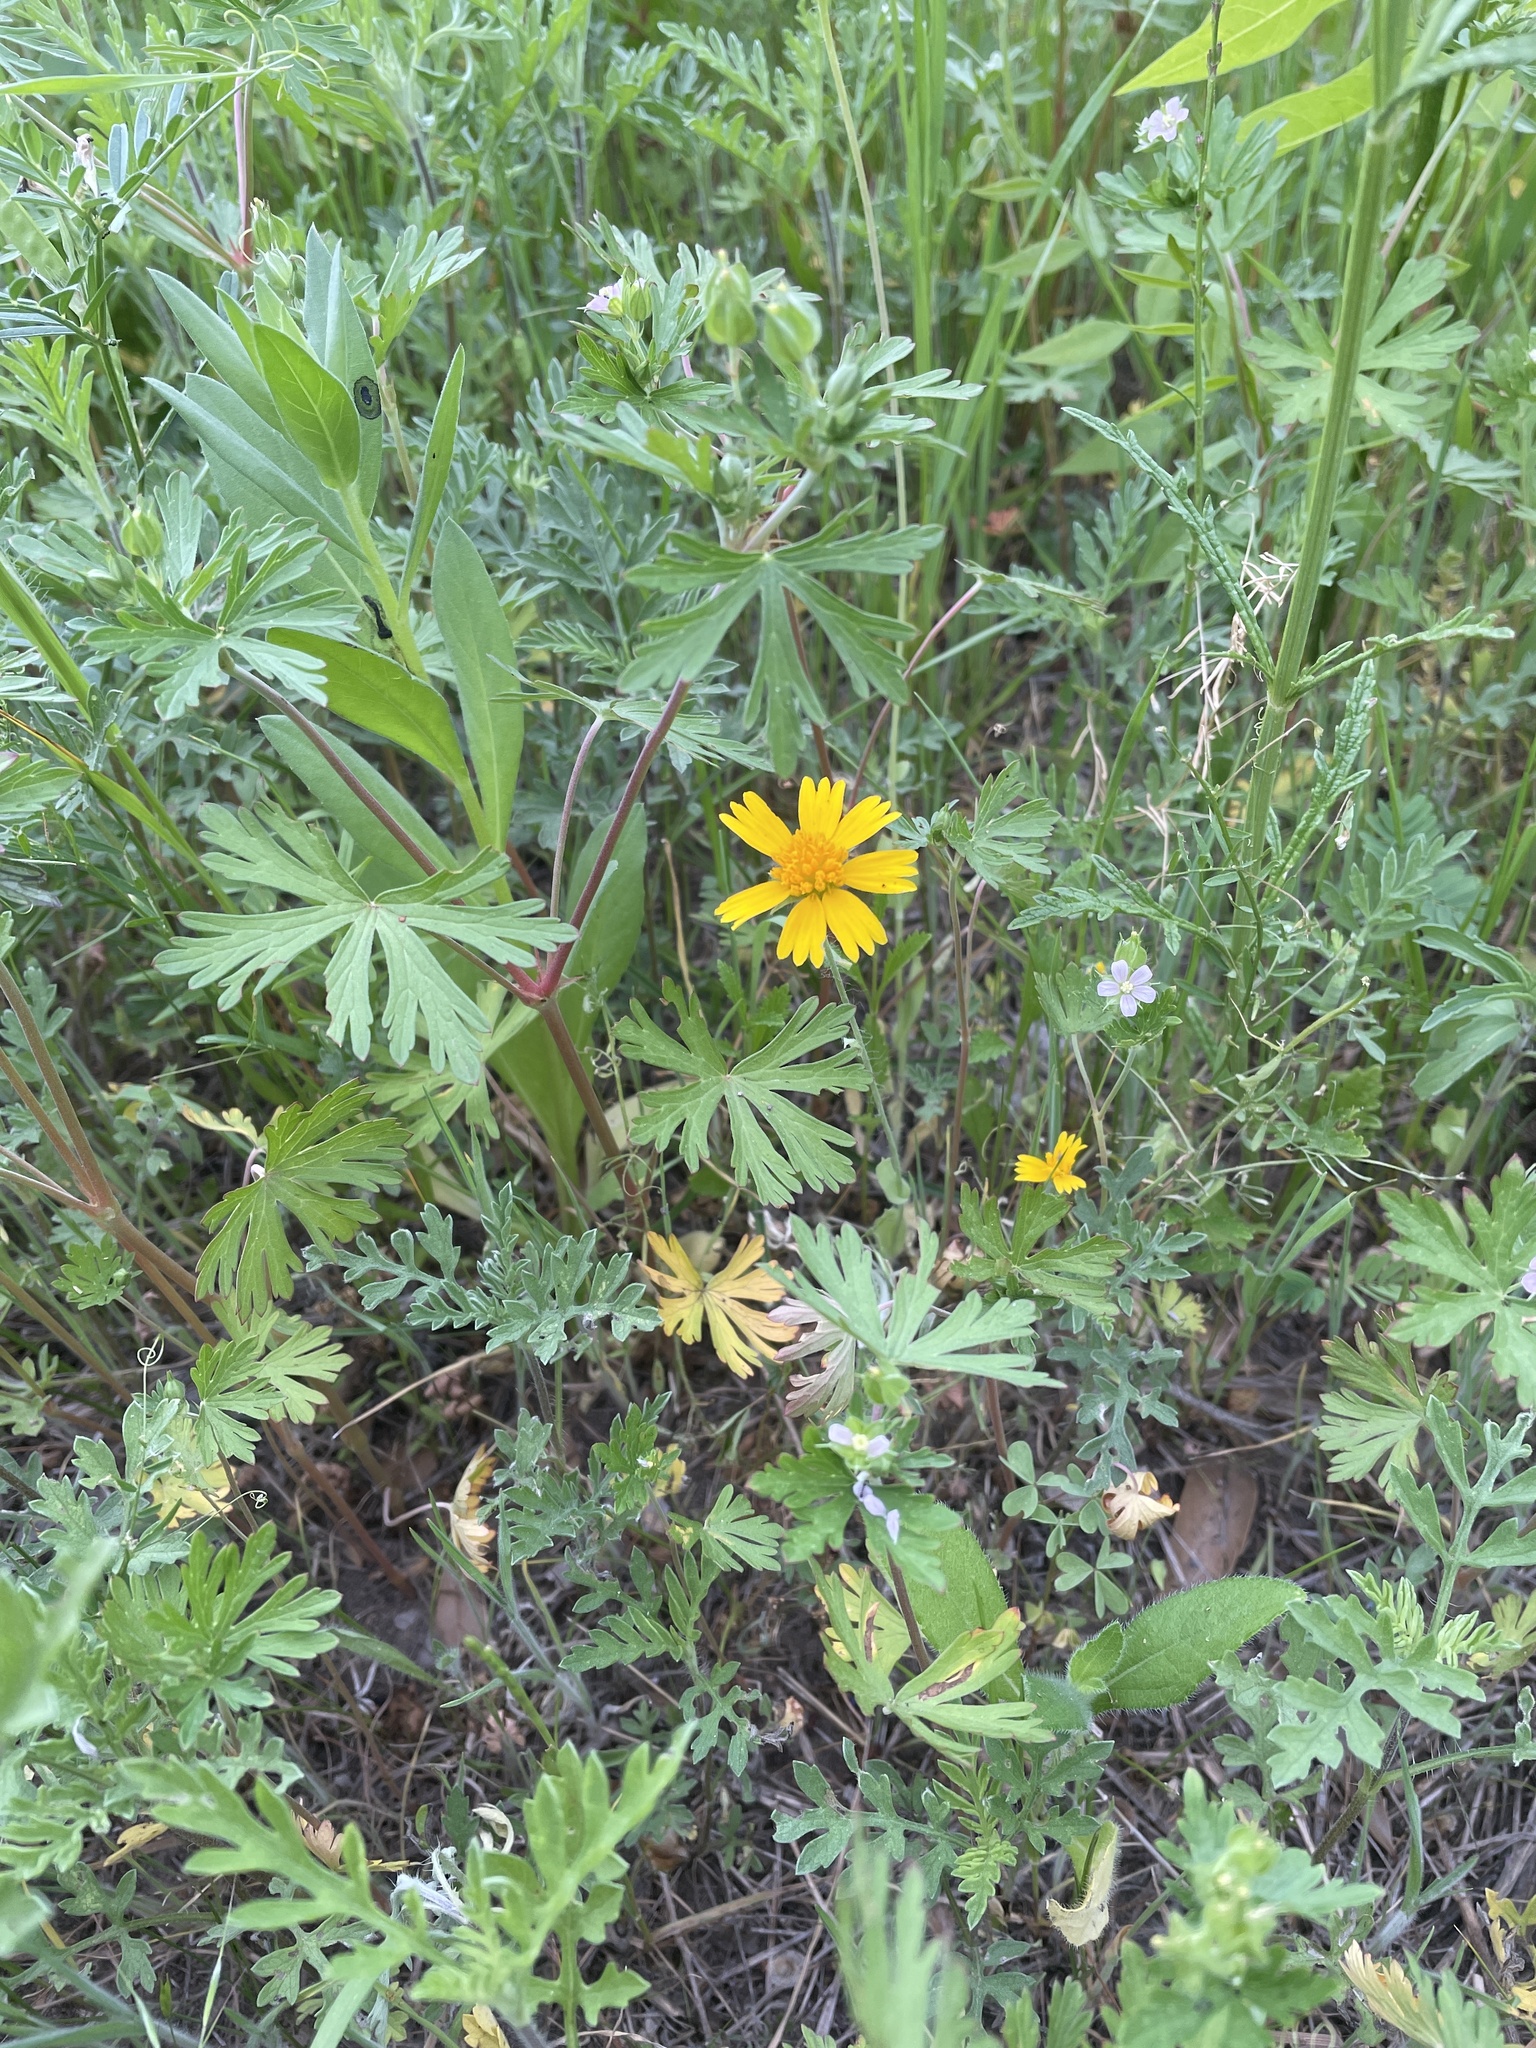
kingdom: Plantae
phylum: Tracheophyta
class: Magnoliopsida
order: Asterales
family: Asteraceae
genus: Amblyolepis
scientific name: Amblyolepis setigera
